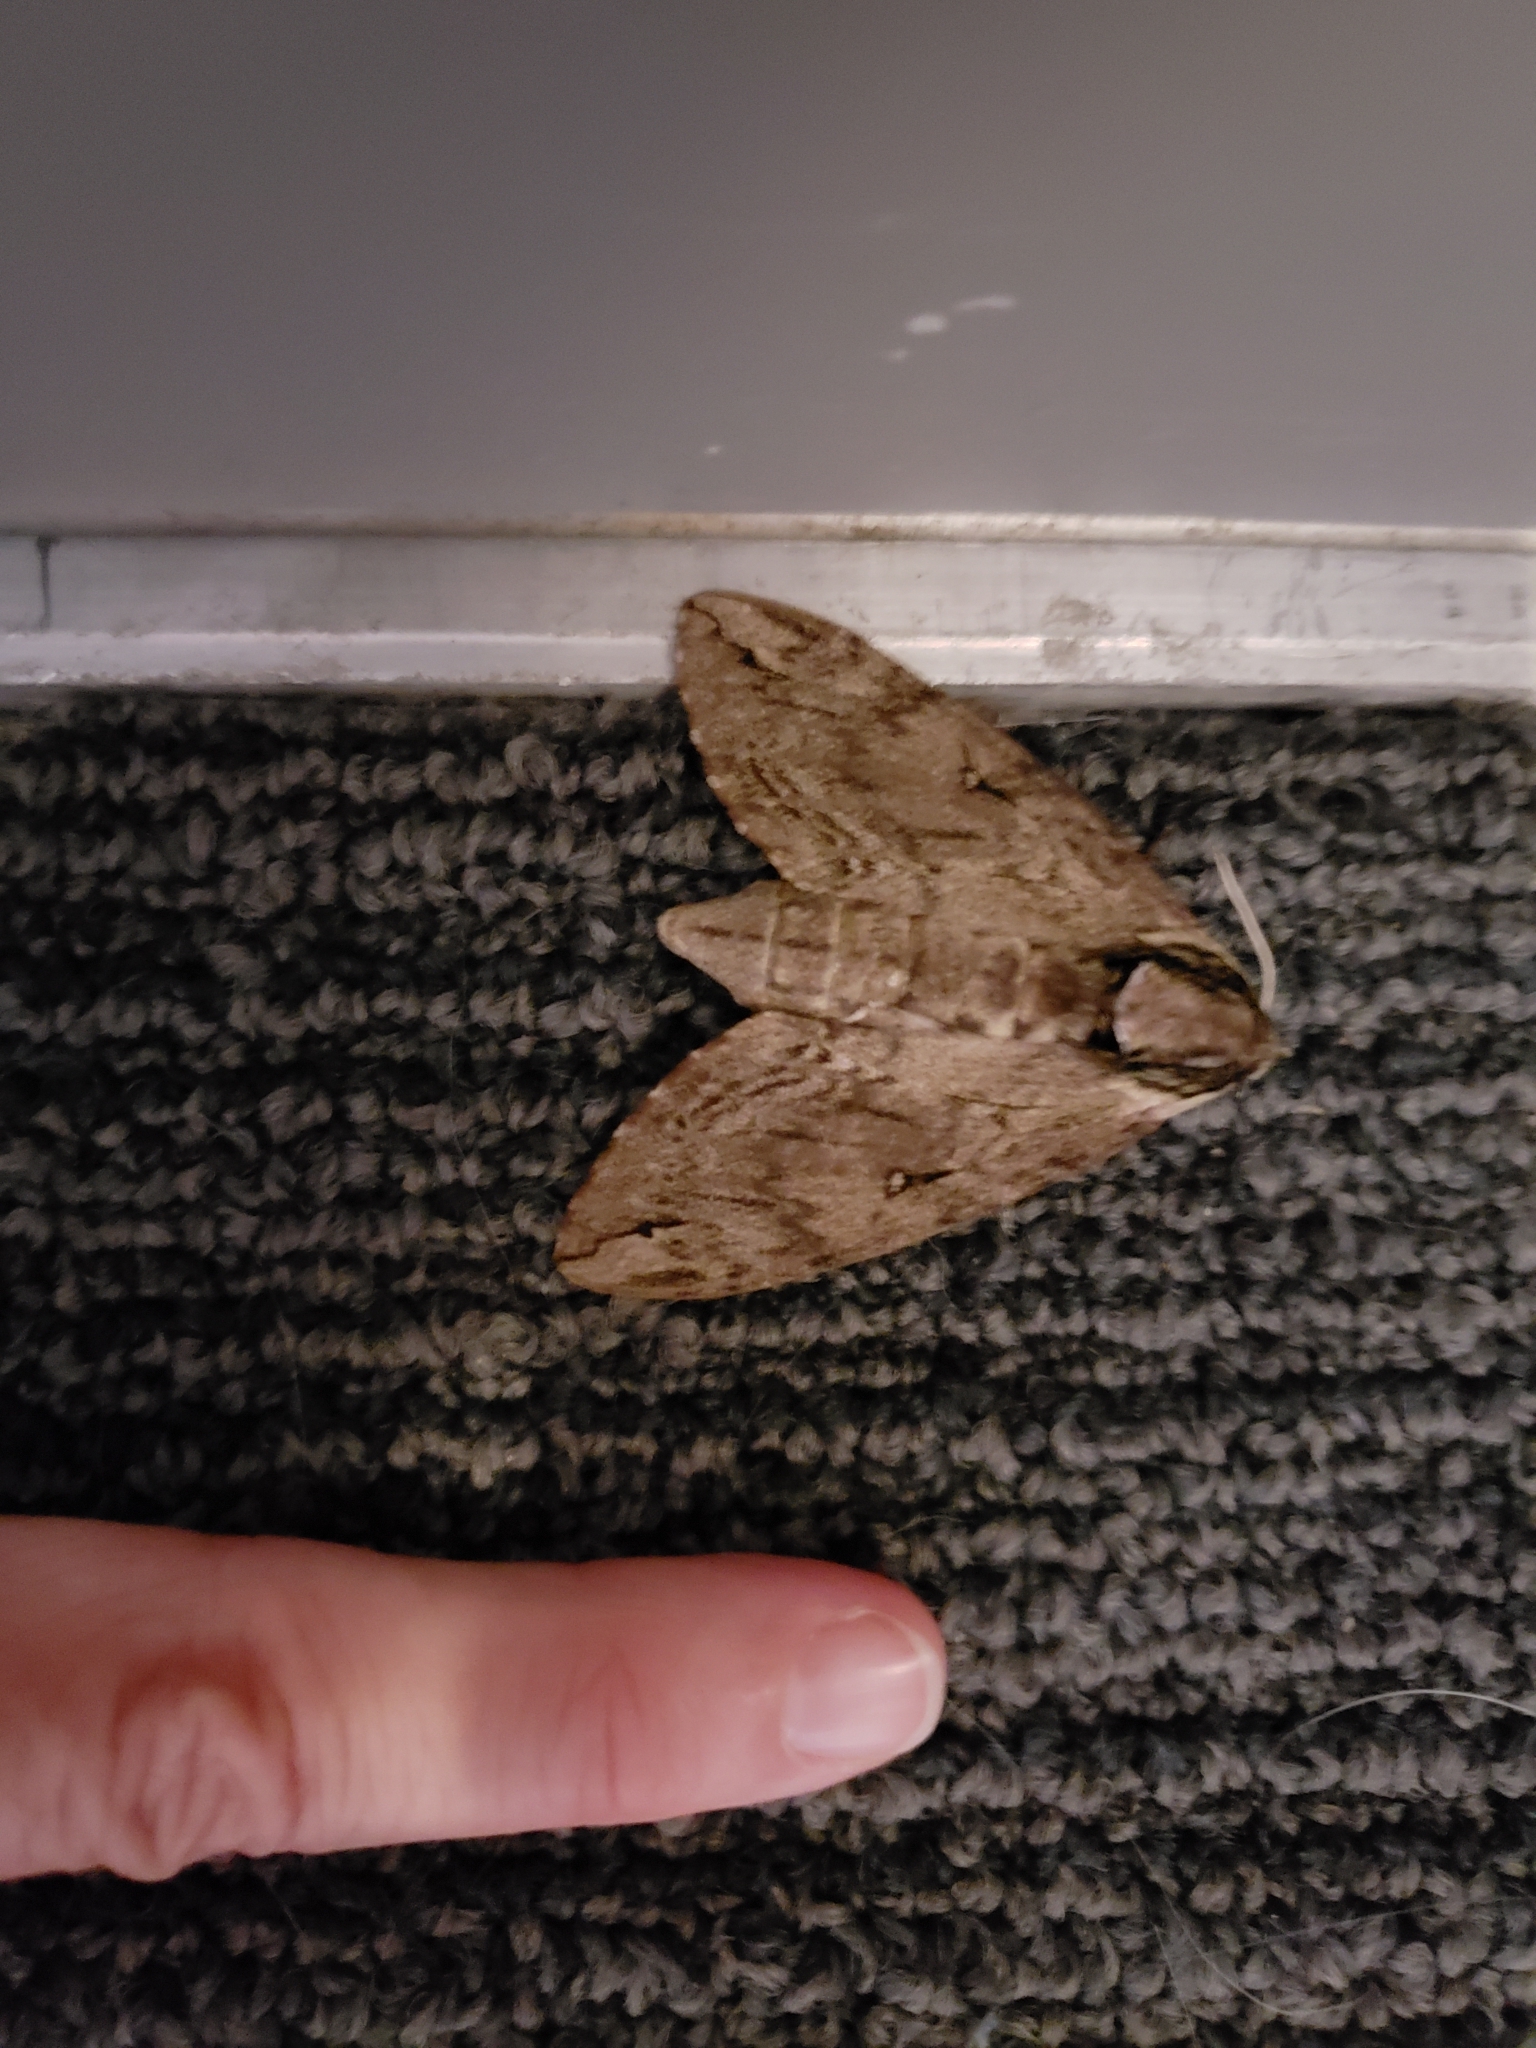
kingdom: Animalia
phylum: Arthropoda
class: Insecta
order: Lepidoptera
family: Sphingidae
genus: Ceratomia
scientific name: Ceratomia catalpae
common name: Catalpa hornworm
